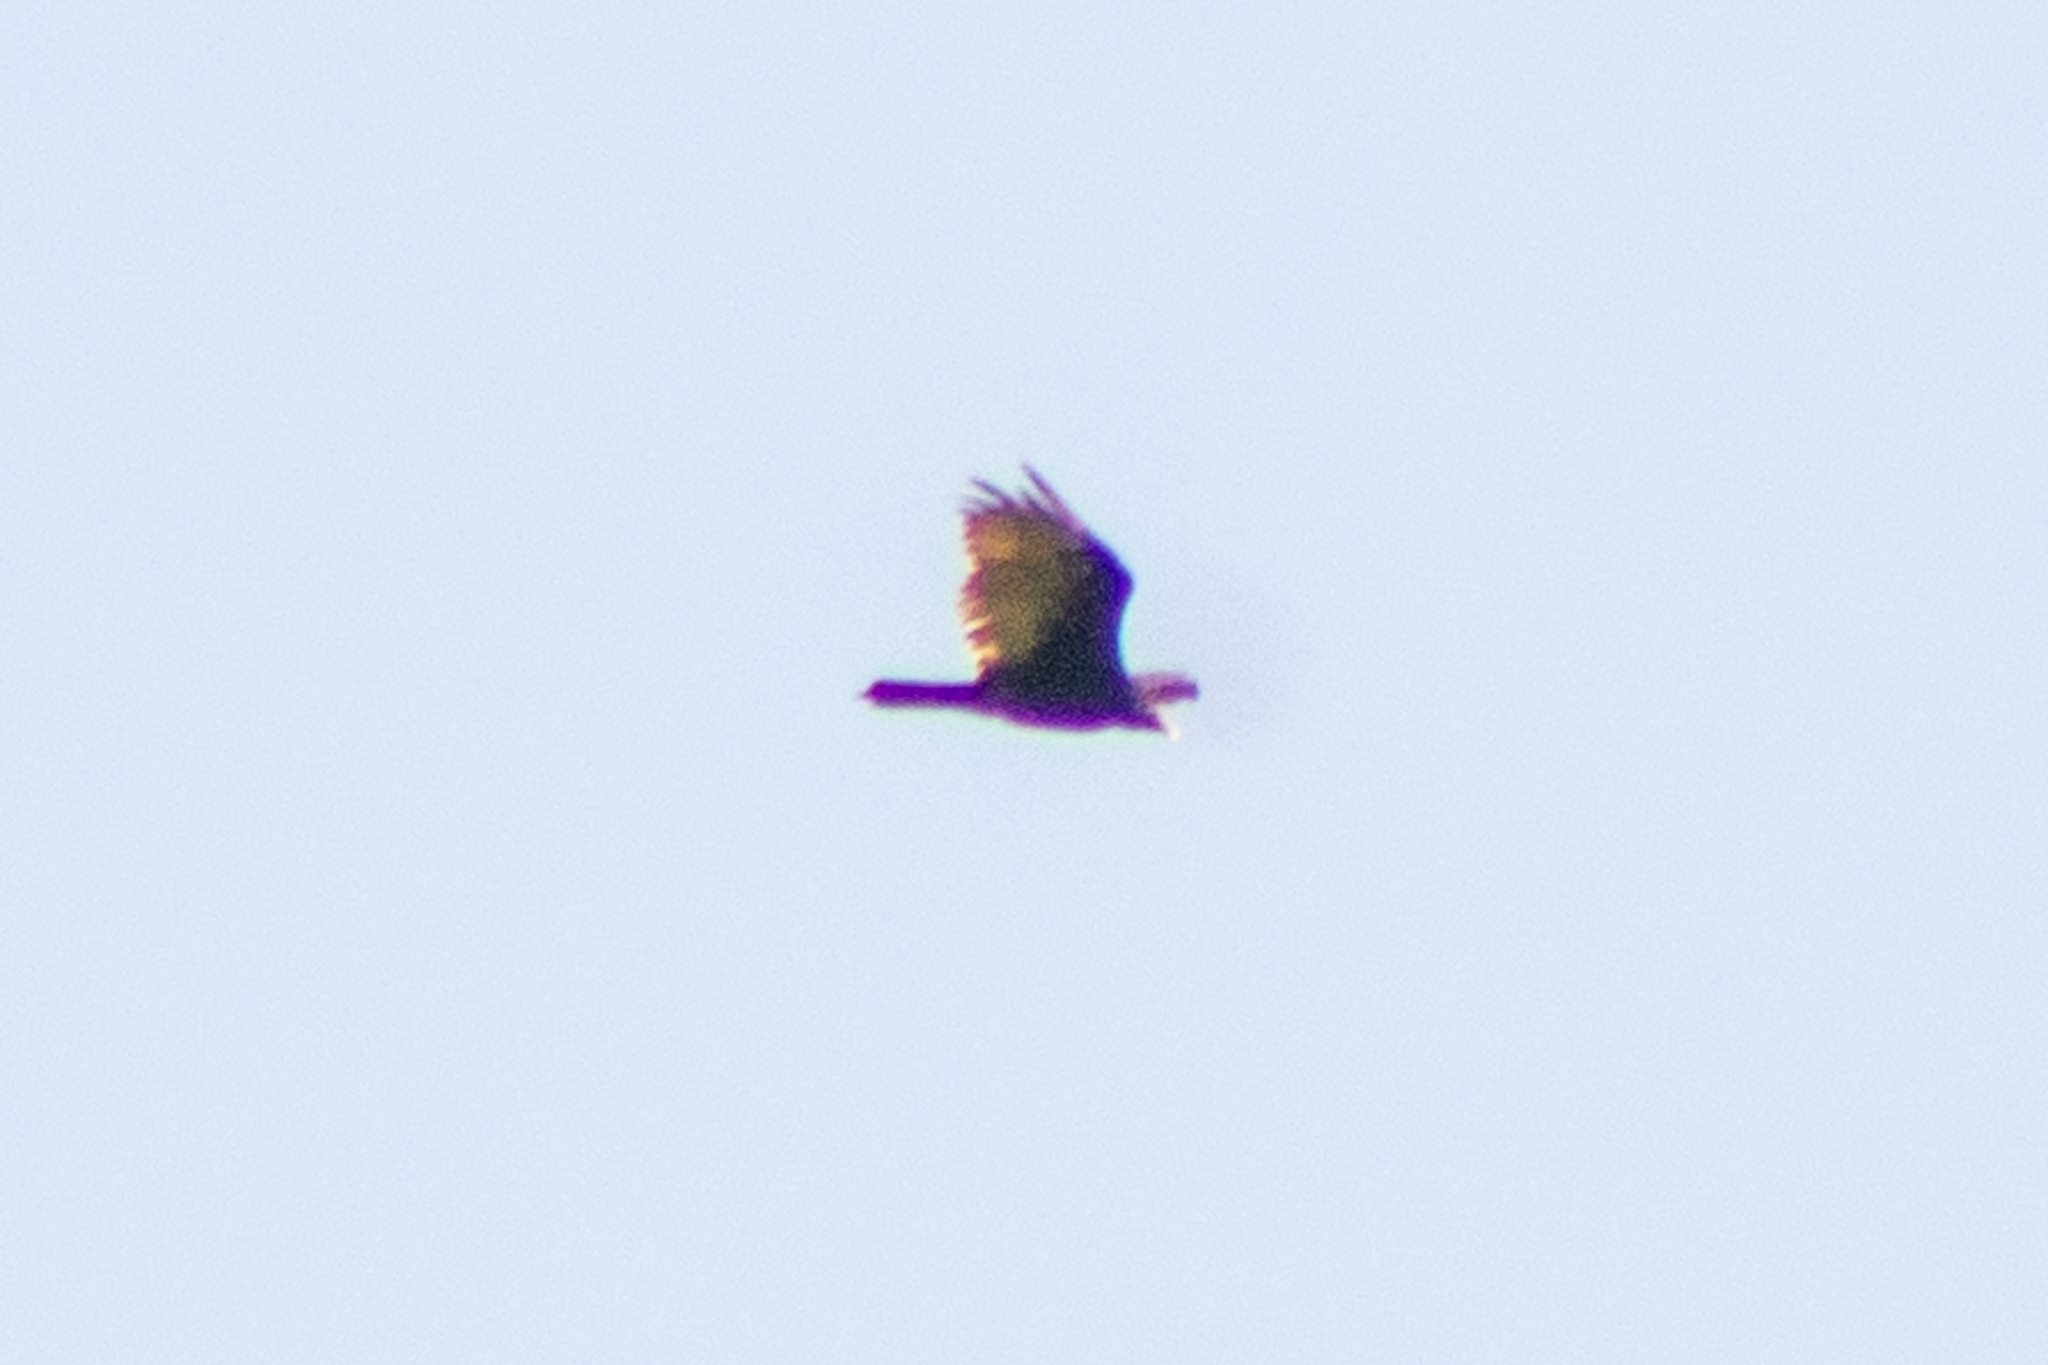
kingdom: Animalia
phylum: Chordata
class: Aves
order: Accipitriformes
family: Cathartidae
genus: Cathartes
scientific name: Cathartes aura
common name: Turkey vulture
